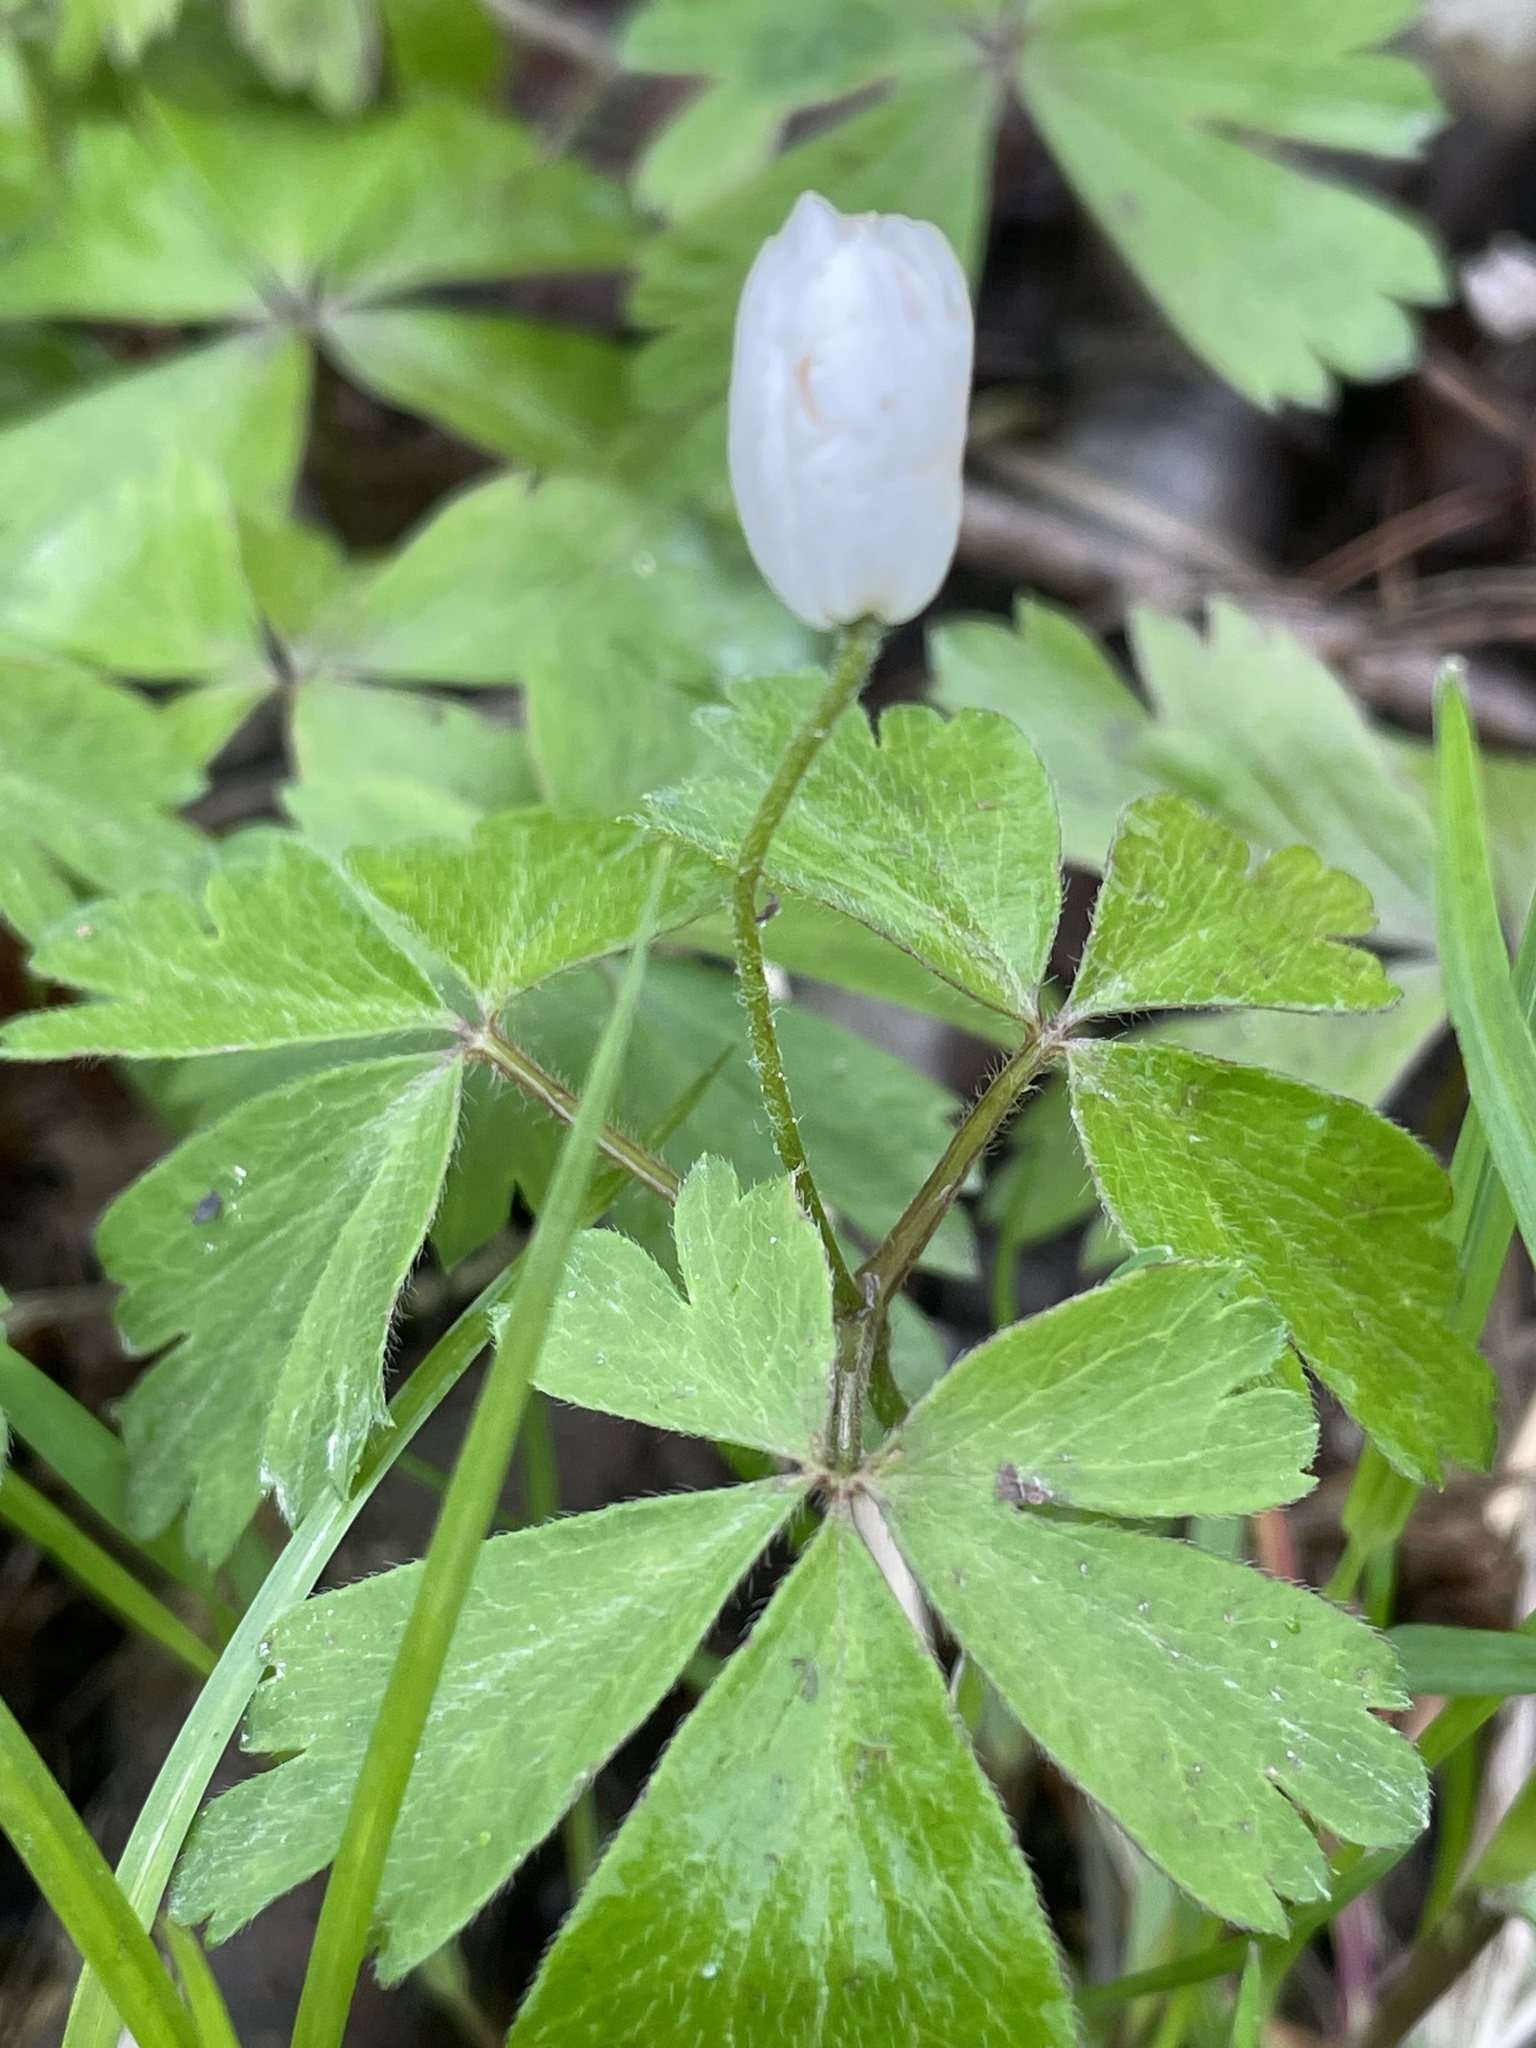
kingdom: Plantae
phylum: Tracheophyta
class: Magnoliopsida
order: Ranunculales
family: Ranunculaceae
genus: Anemone
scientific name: Anemone quinquefolia
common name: Wood anemone
